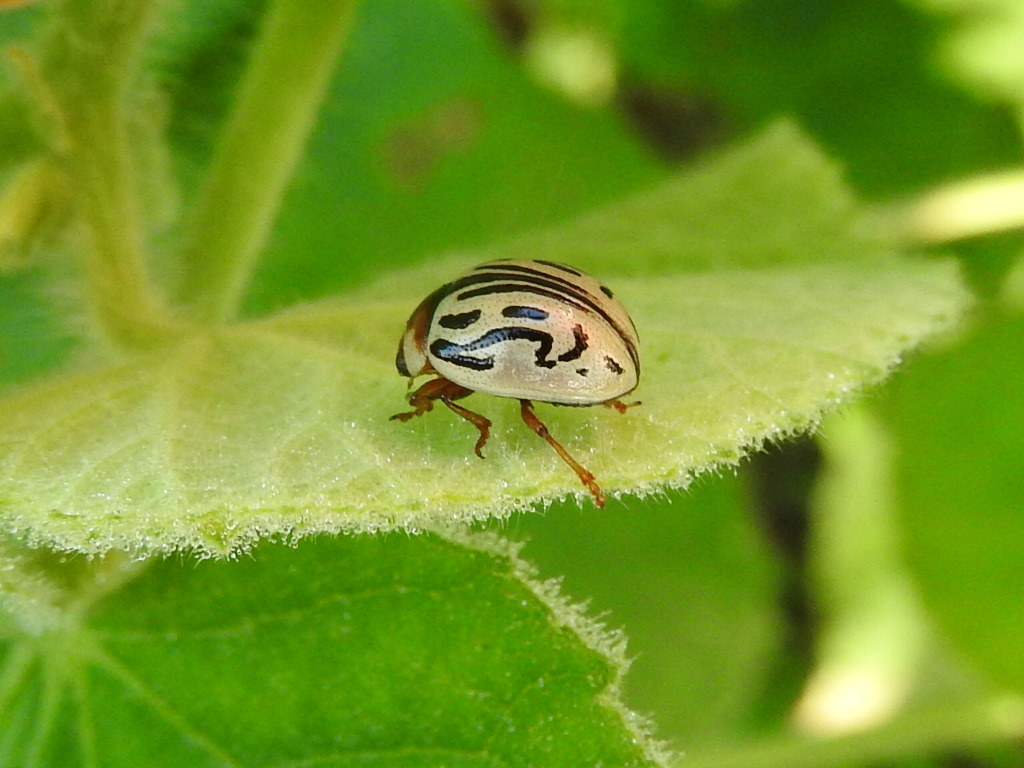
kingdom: Animalia
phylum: Arthropoda
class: Insecta
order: Coleoptera
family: Chrysomelidae
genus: Calligrapha
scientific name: Calligrapha
